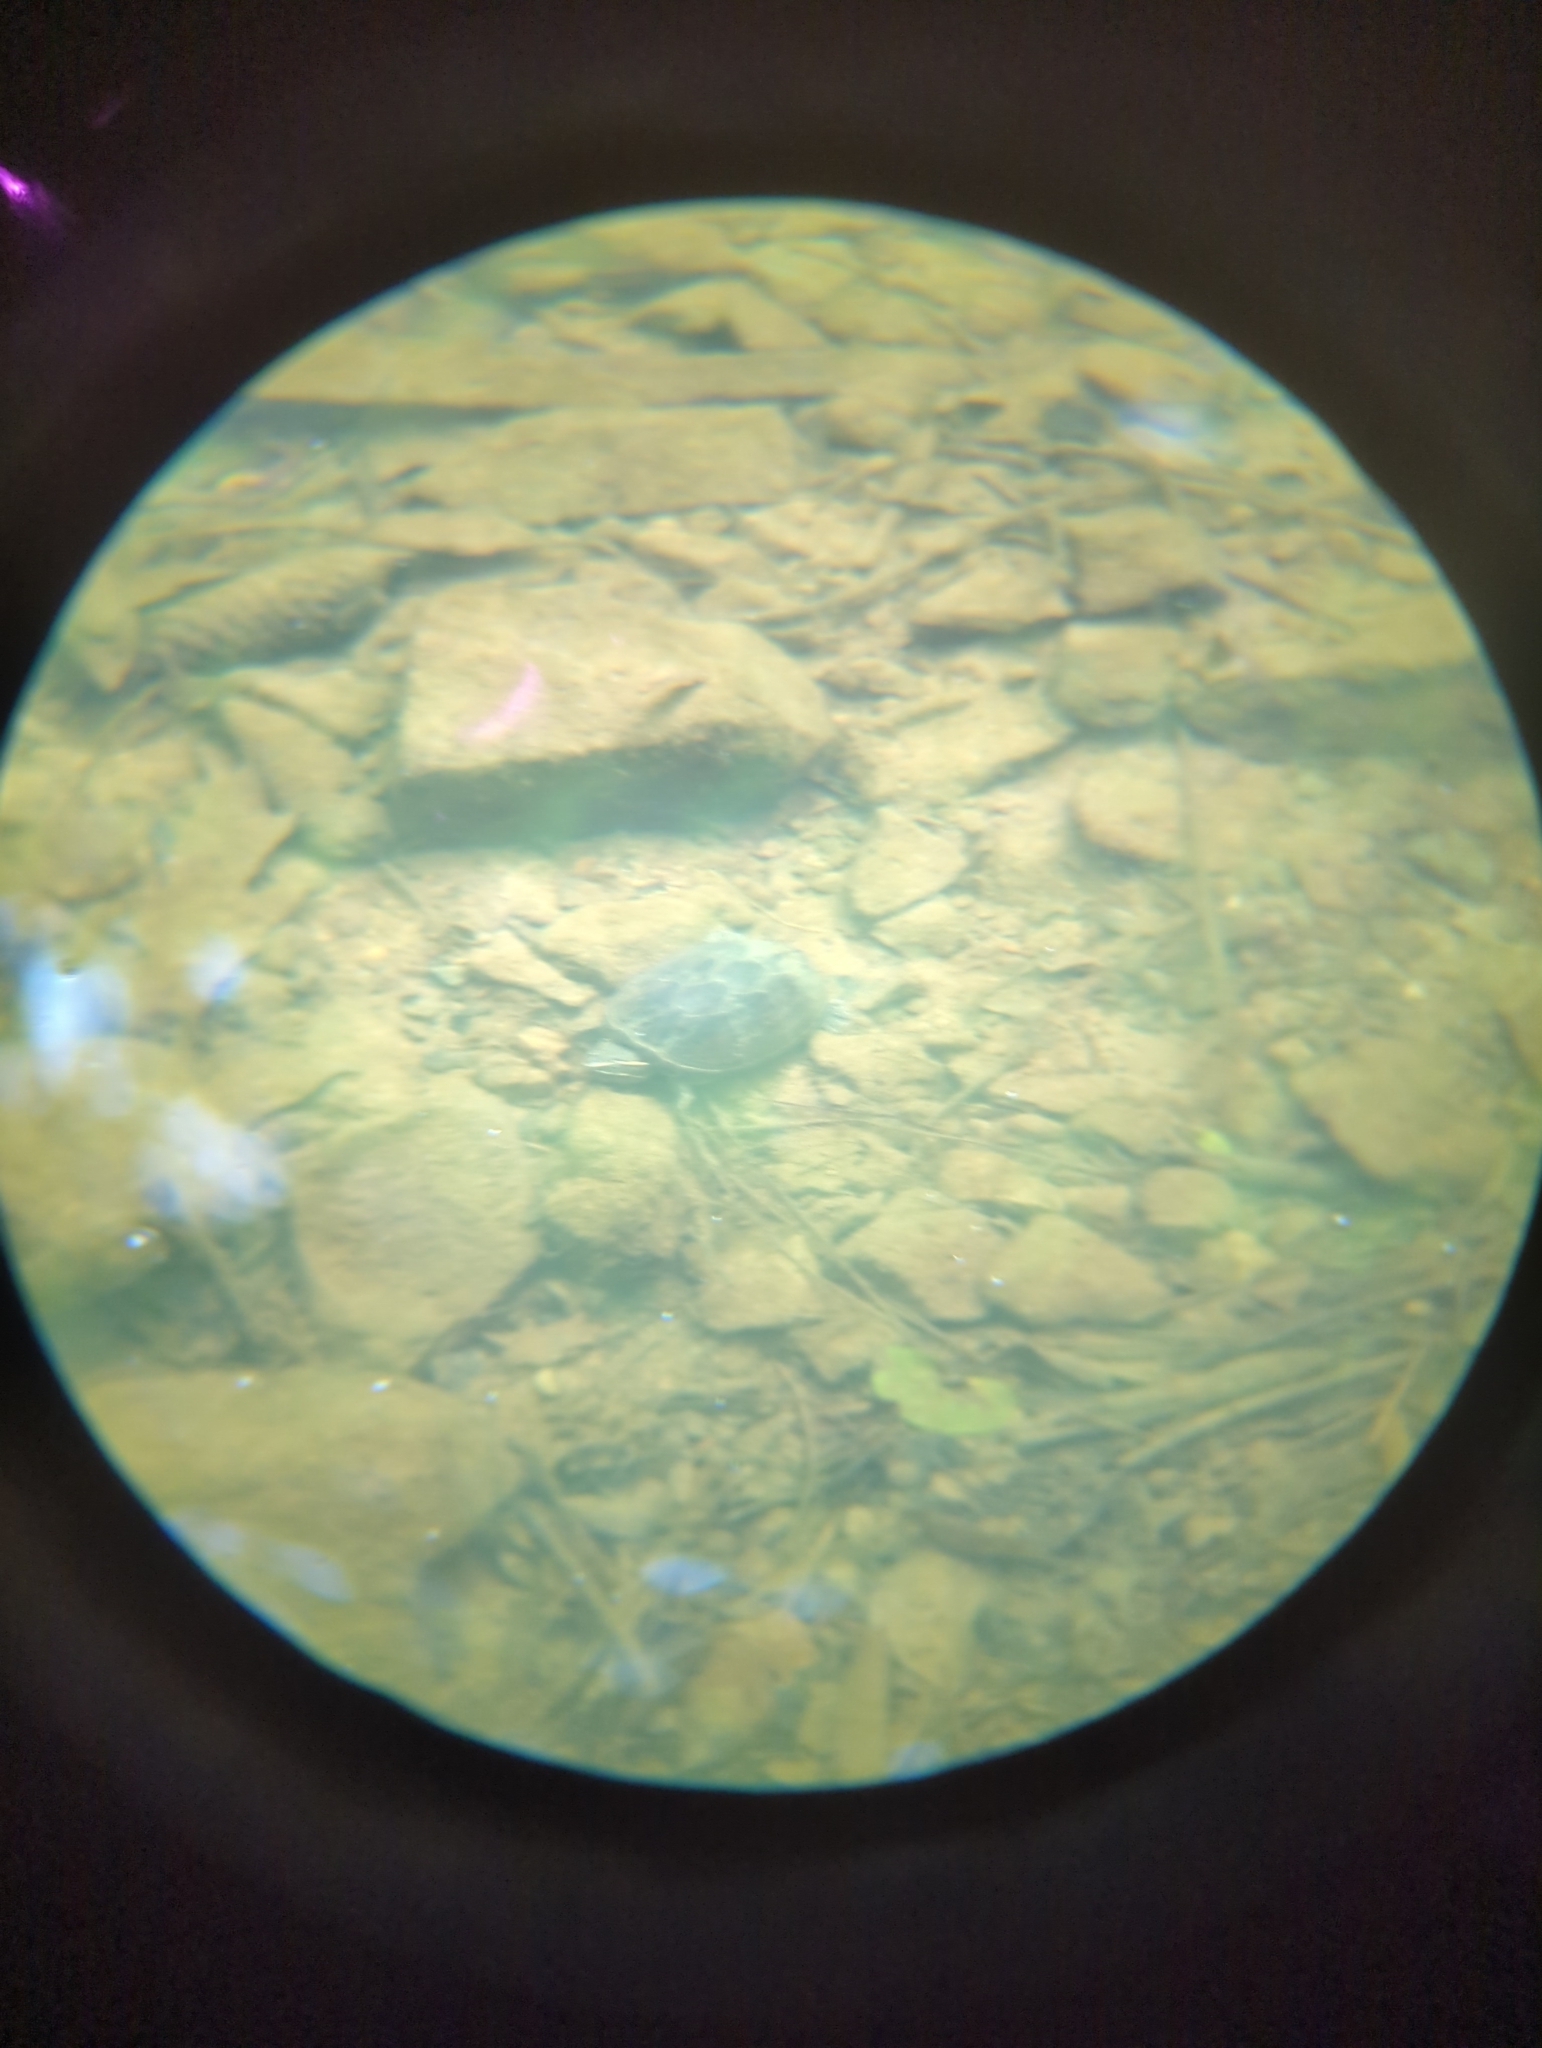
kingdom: Animalia
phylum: Chordata
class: Testudines
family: Kinosternidae
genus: Sternotherus
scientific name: Sternotherus odoratus
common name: Common musk turtle
